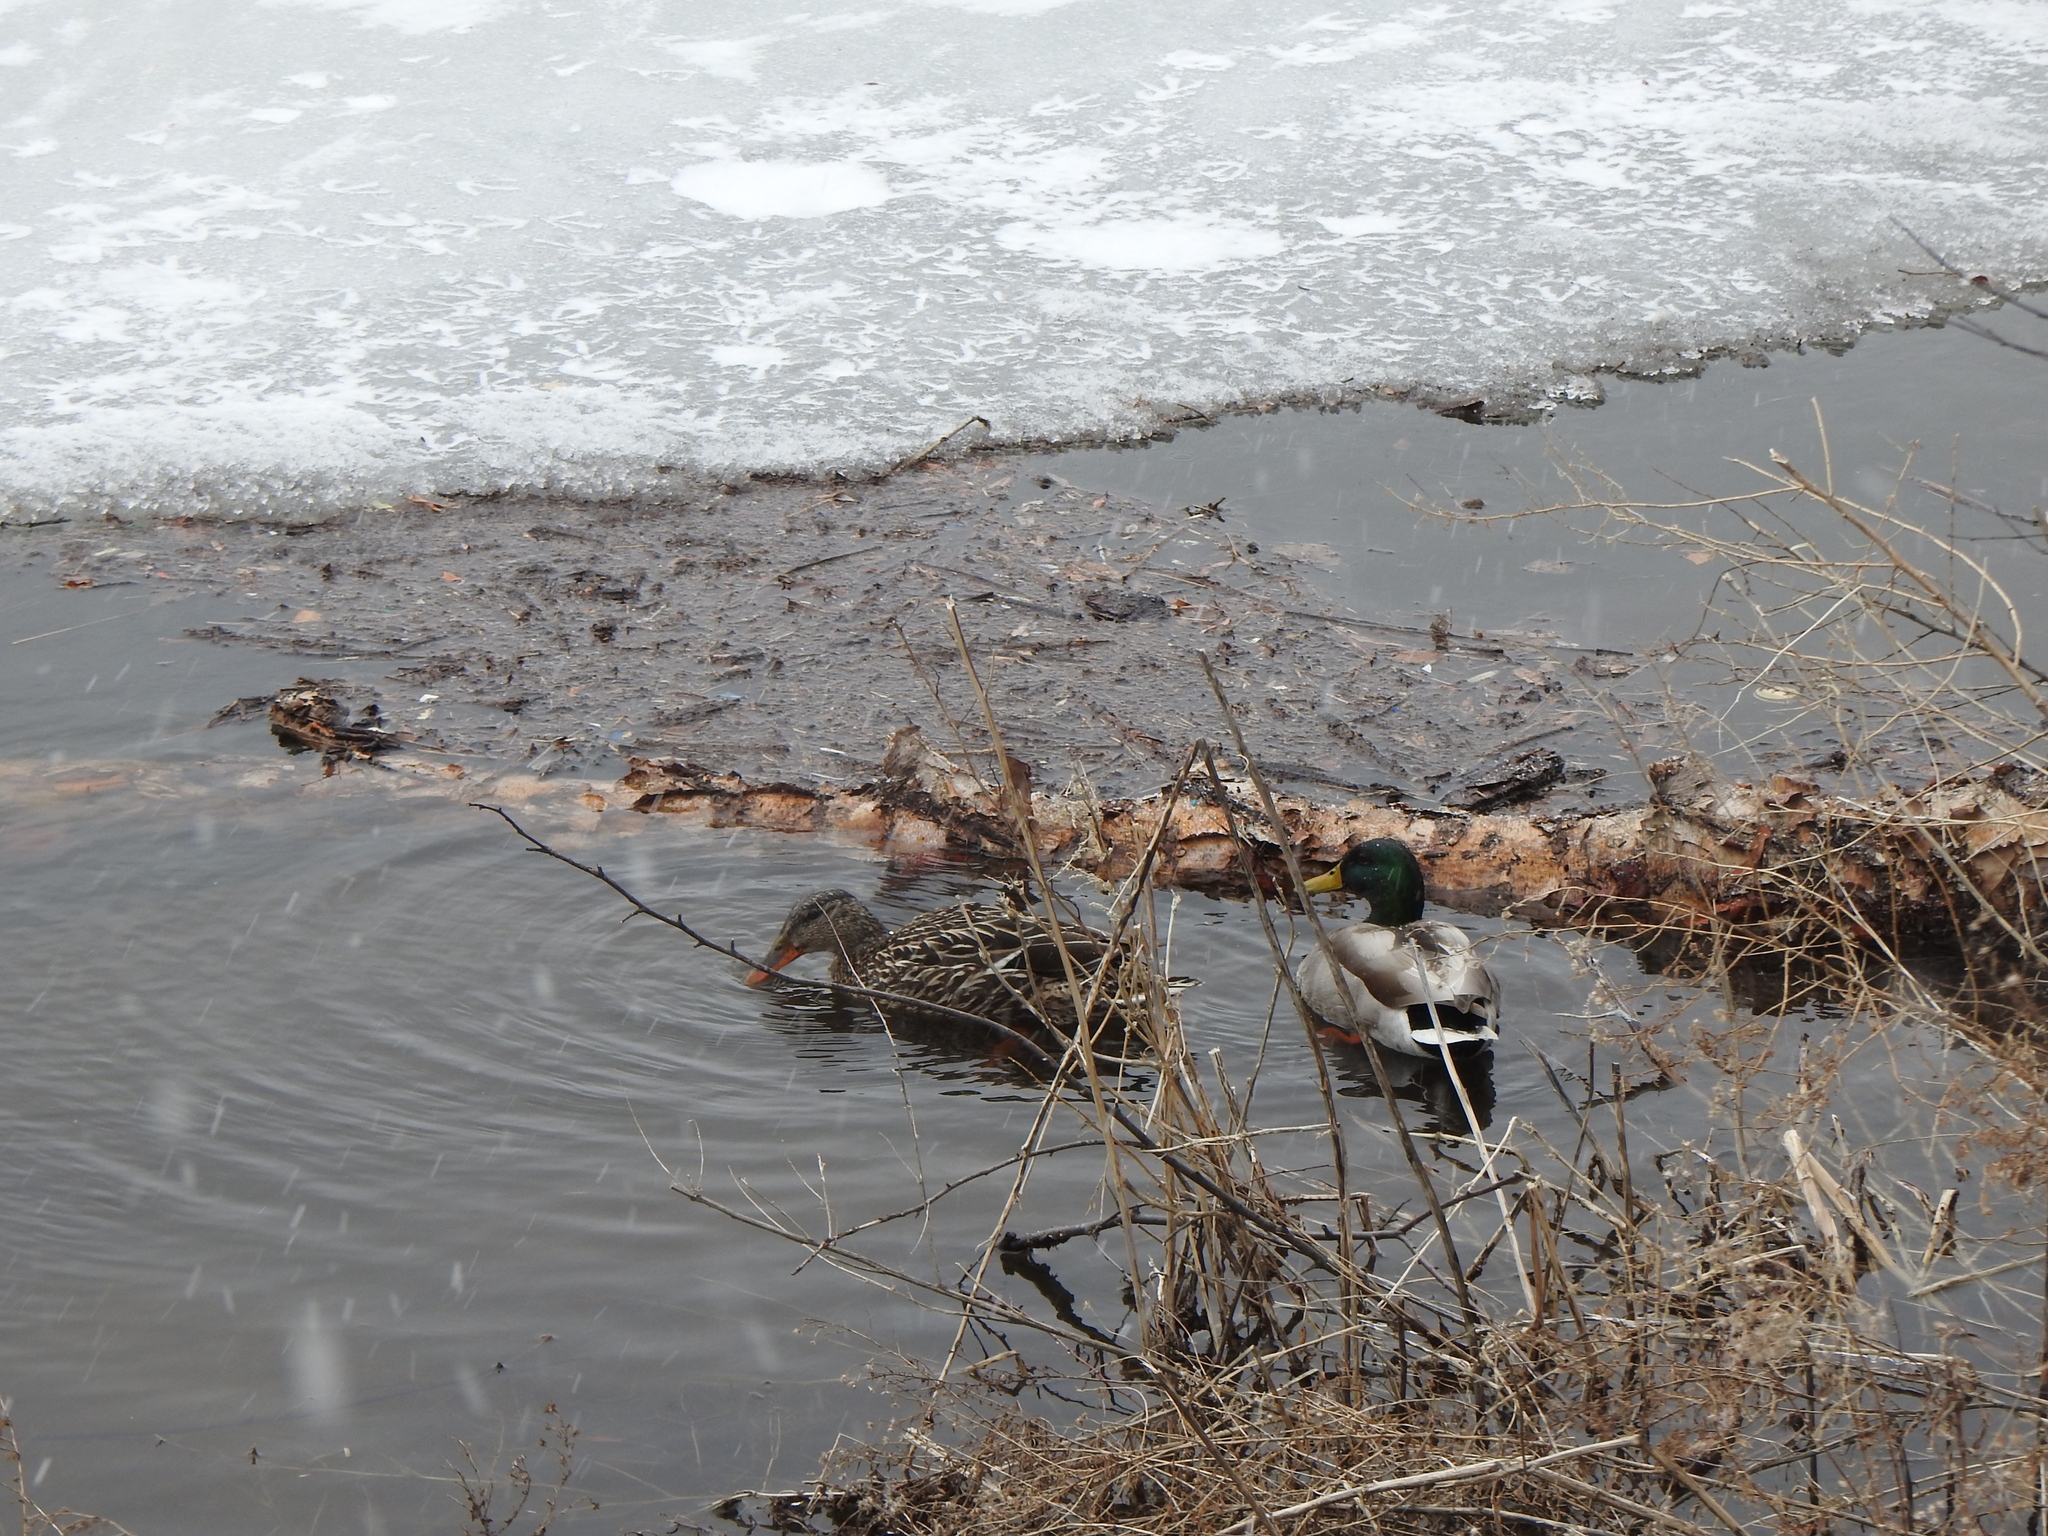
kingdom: Animalia
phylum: Chordata
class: Aves
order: Anseriformes
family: Anatidae
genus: Anas
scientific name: Anas platyrhynchos
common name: Mallard
